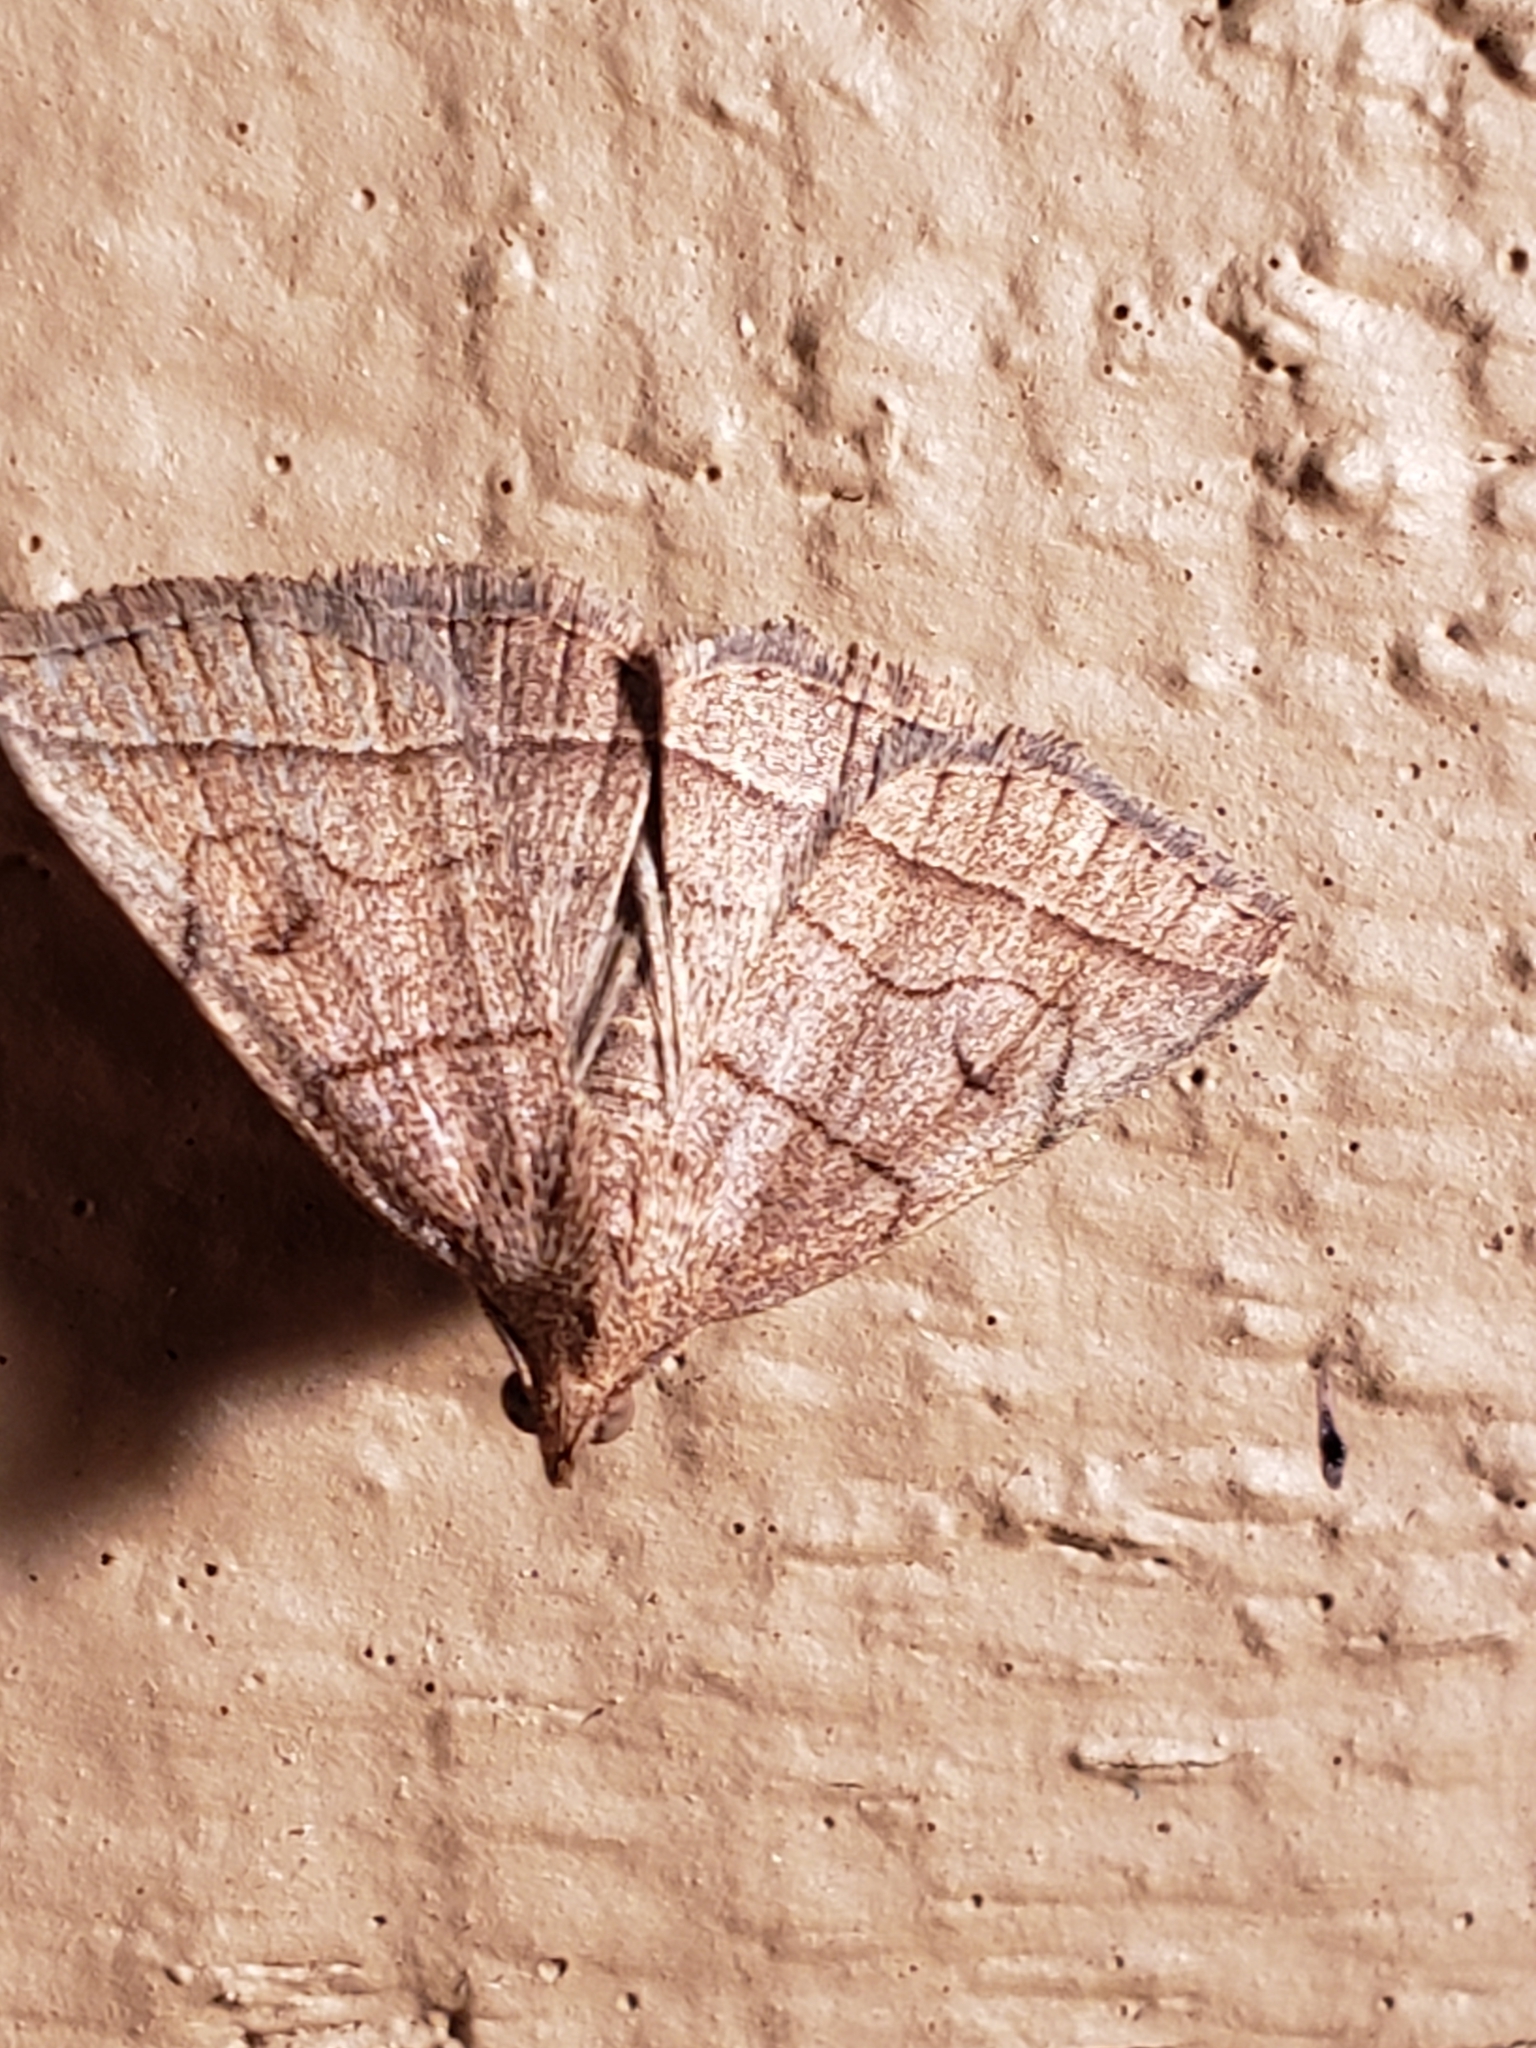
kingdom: Animalia
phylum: Arthropoda
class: Insecta
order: Lepidoptera
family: Erebidae
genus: Zanclognatha
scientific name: Zanclognatha cruralis
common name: Early fan-foot
